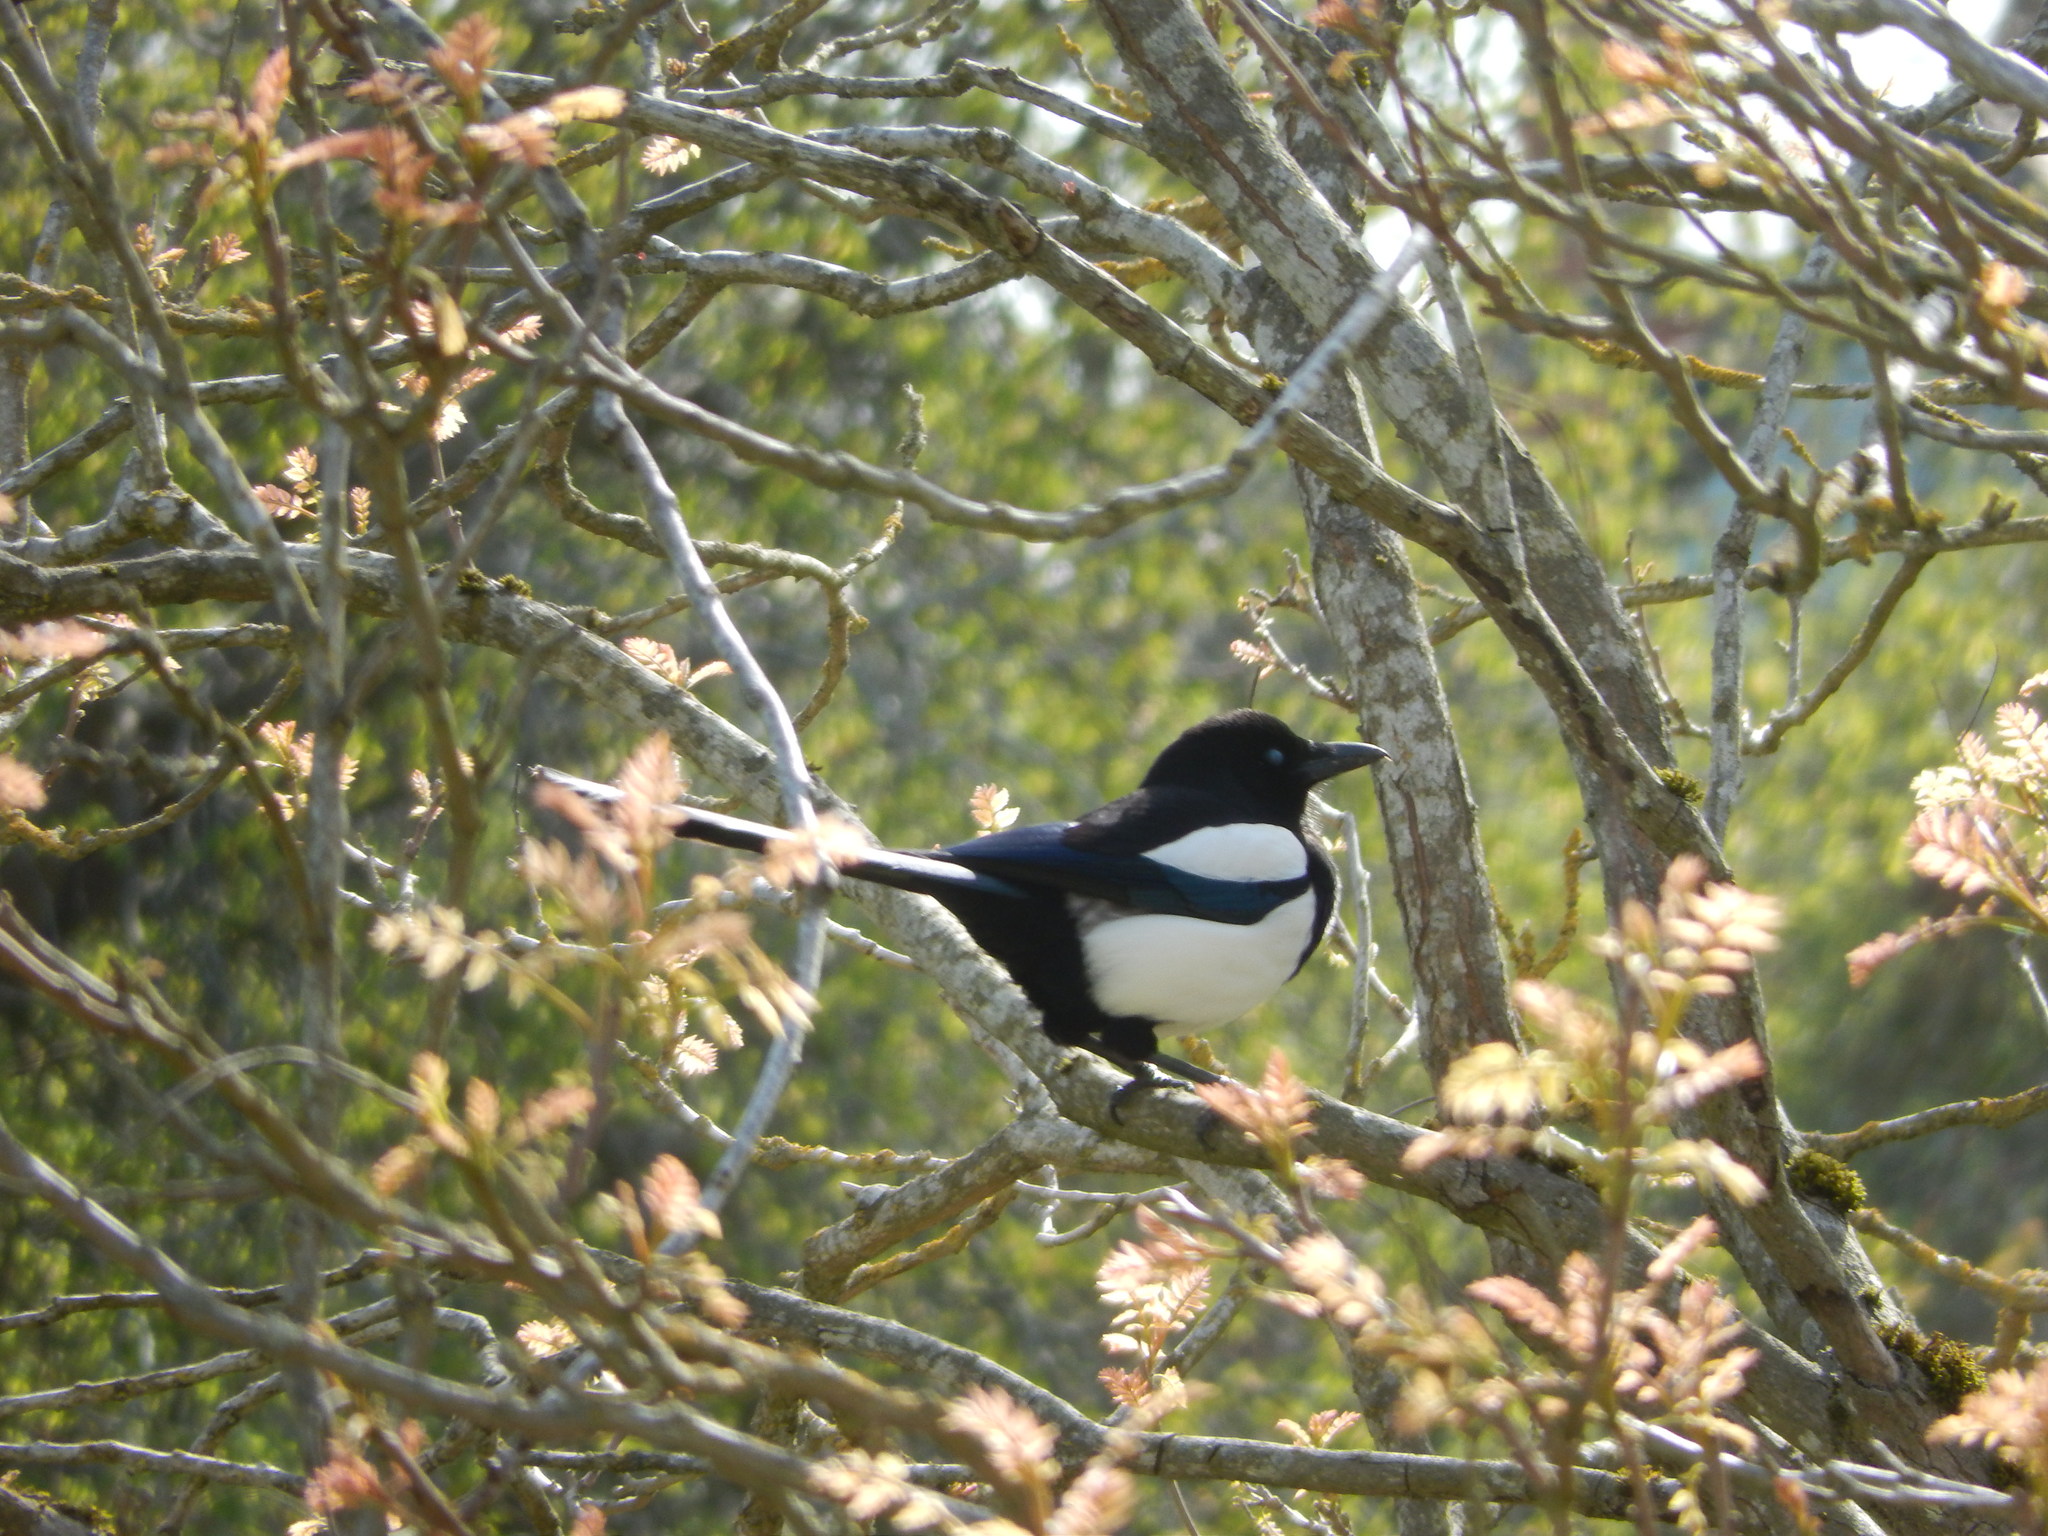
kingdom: Animalia
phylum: Chordata
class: Aves
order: Passeriformes
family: Corvidae
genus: Pica
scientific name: Pica pica
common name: Eurasian magpie
